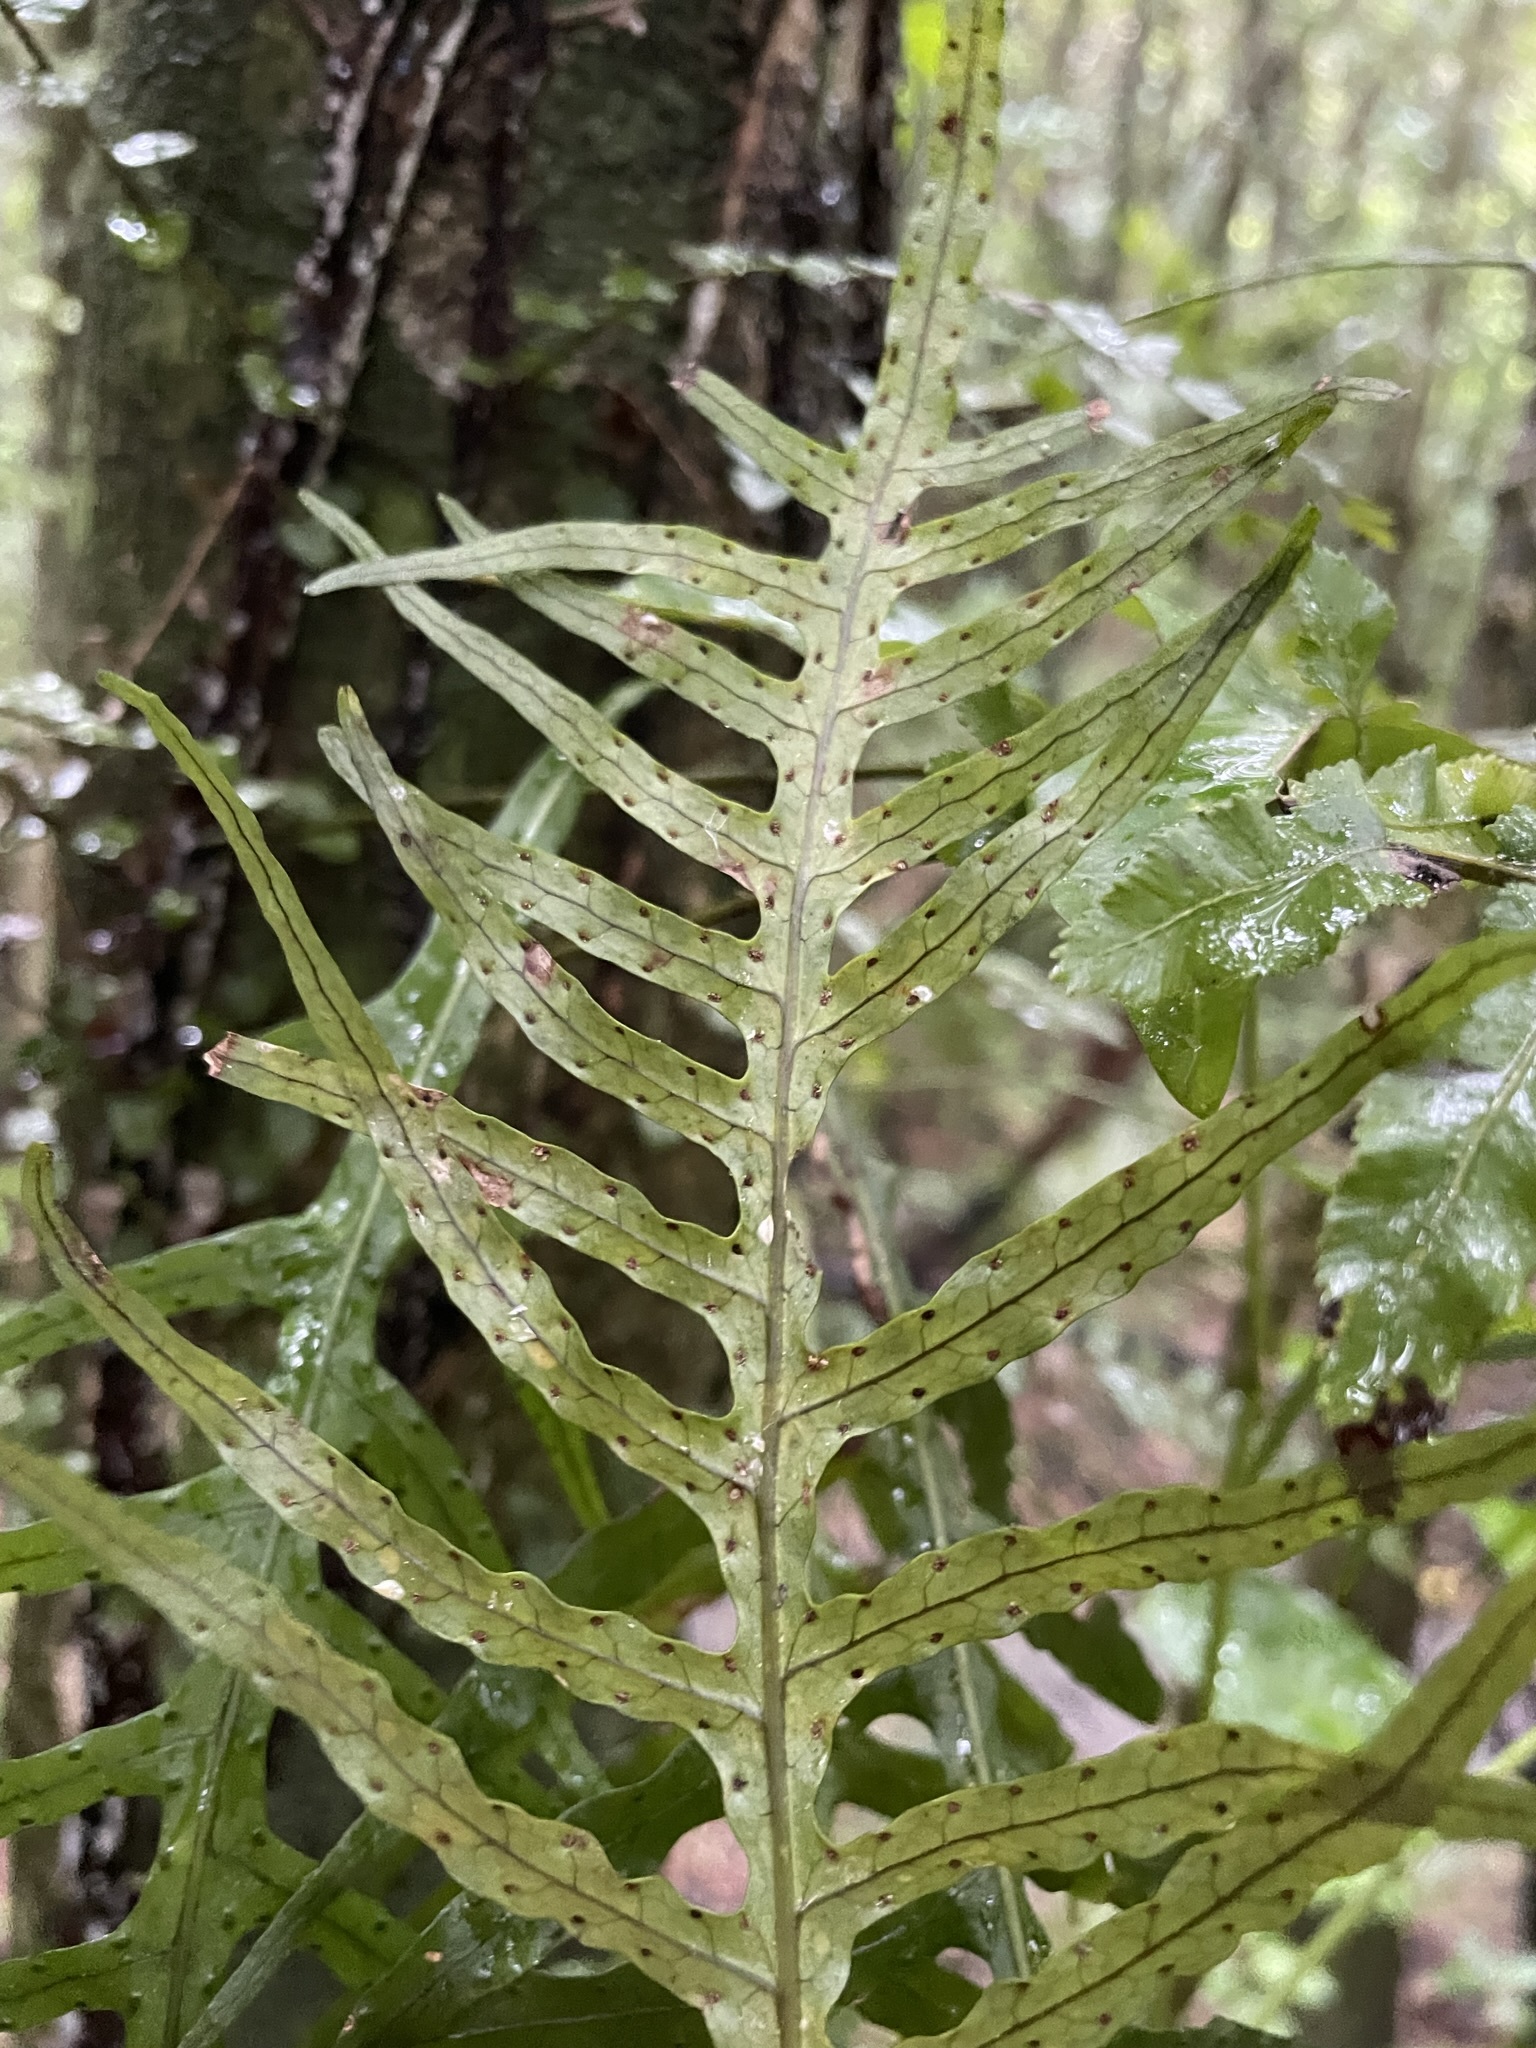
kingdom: Plantae
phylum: Tracheophyta
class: Polypodiopsida
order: Polypodiales
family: Polypodiaceae
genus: Lecanopteris
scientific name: Lecanopteris scandens
